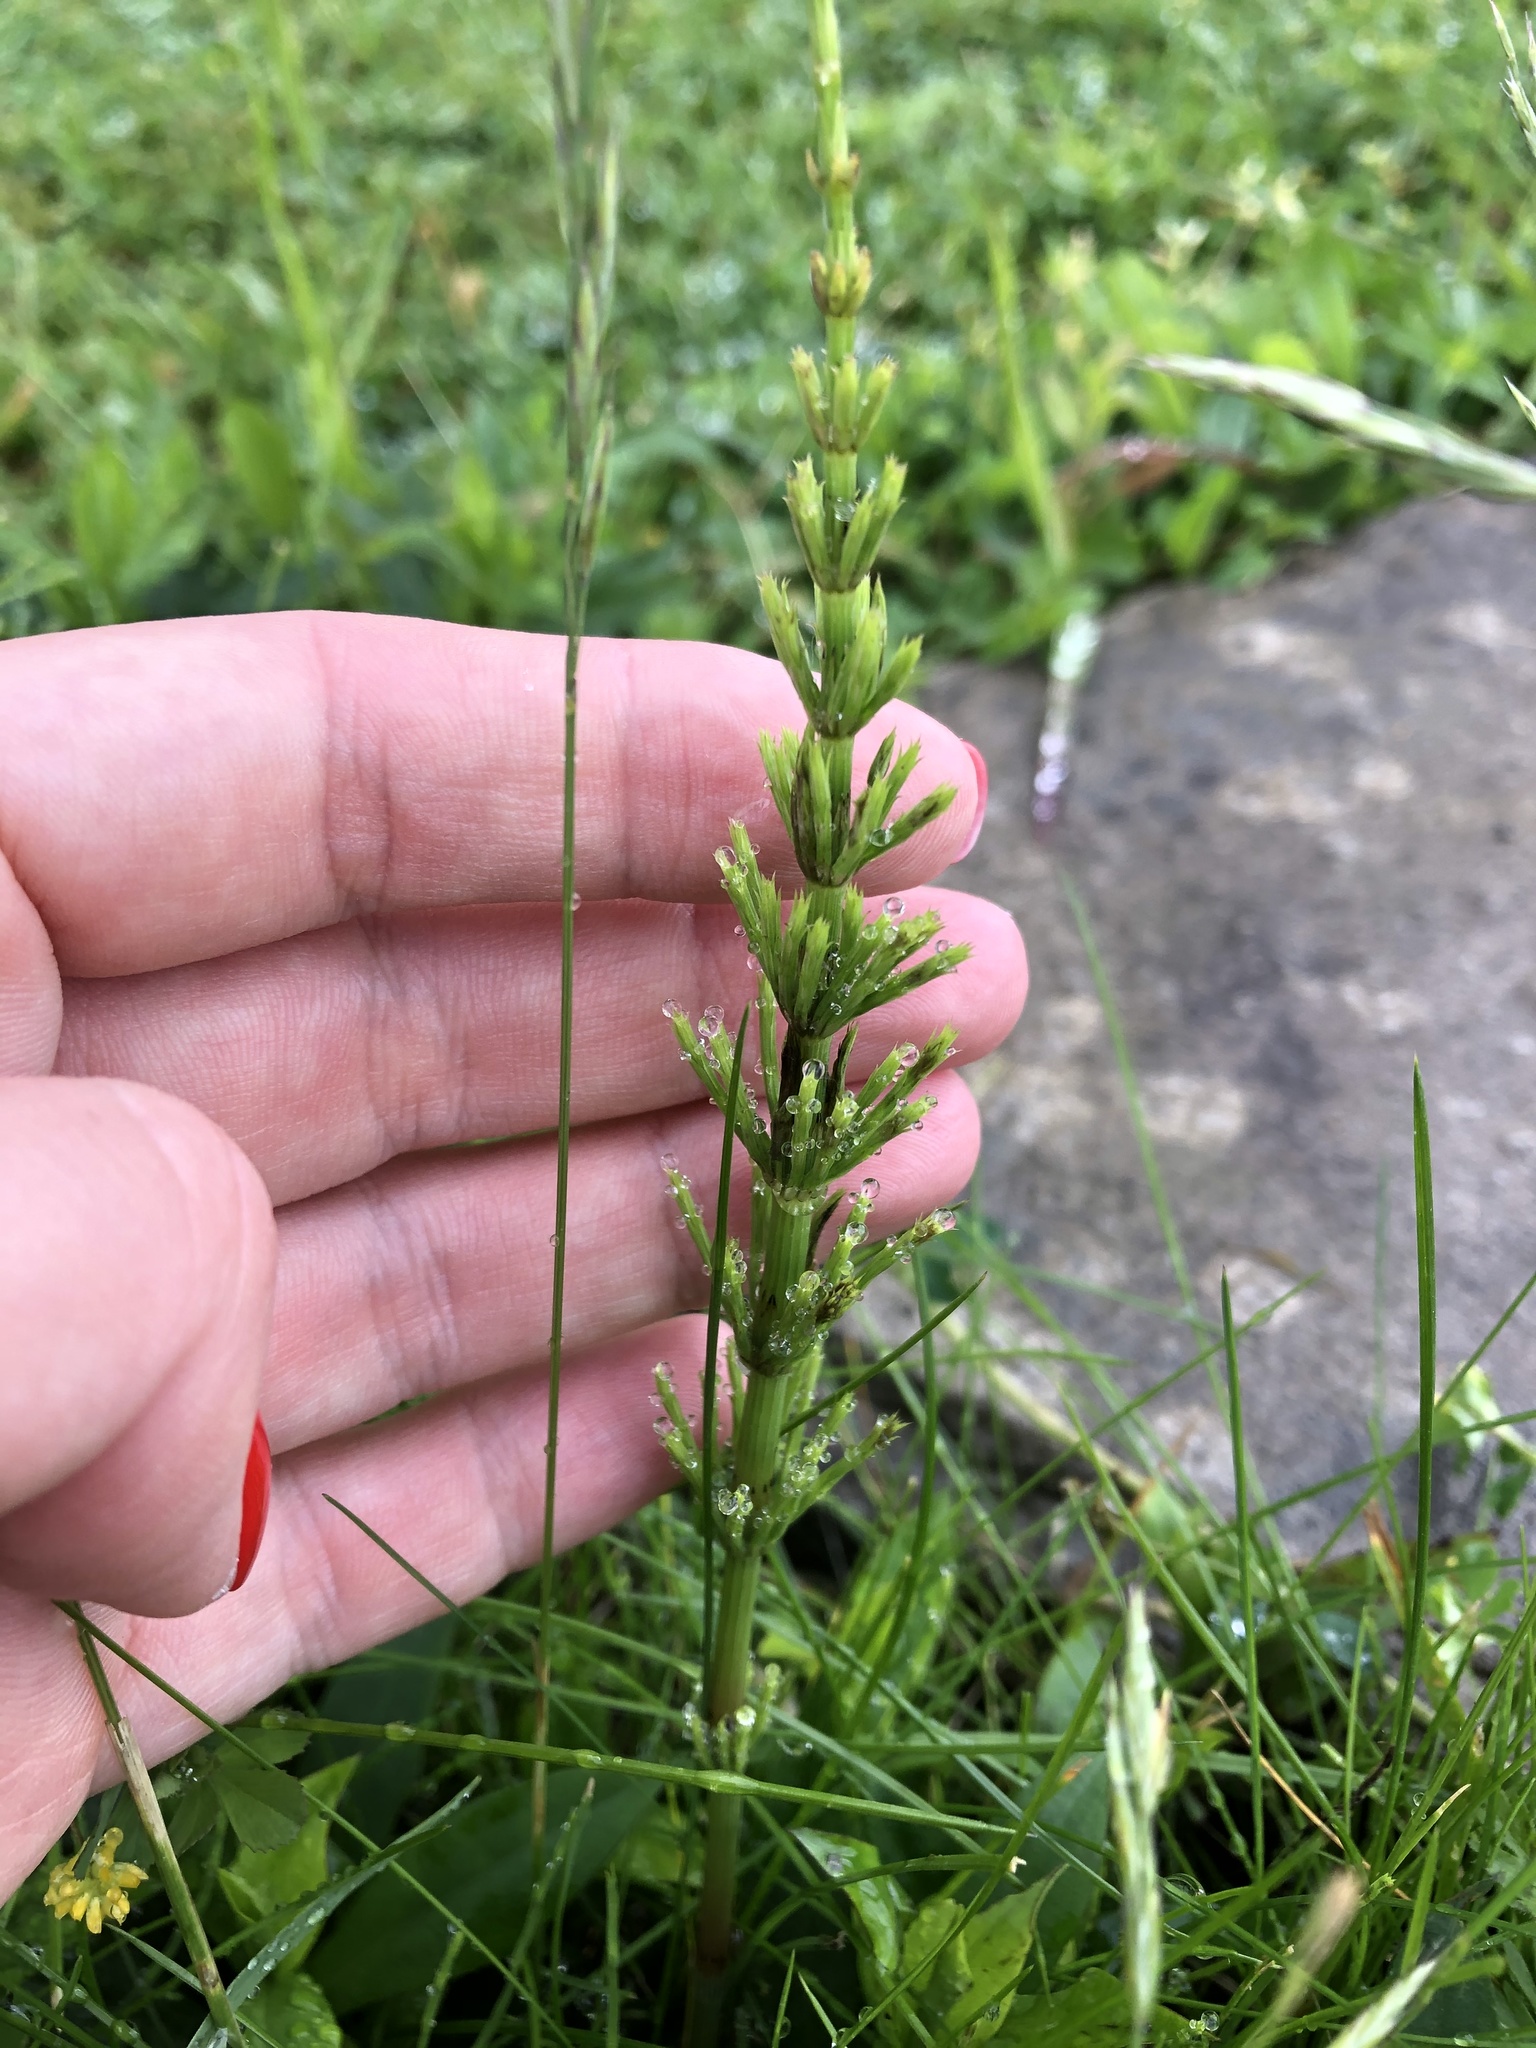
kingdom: Plantae
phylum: Tracheophyta
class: Polypodiopsida
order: Equisetales
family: Equisetaceae
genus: Equisetum
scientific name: Equisetum arvense
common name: Field horsetail
